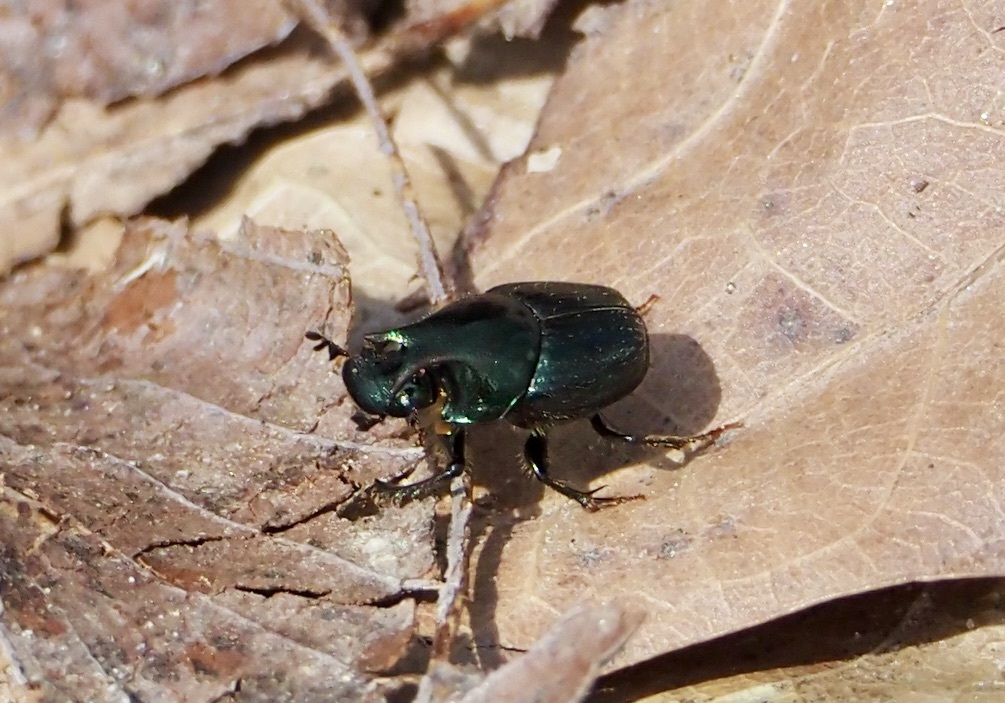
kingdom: Animalia
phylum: Arthropoda
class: Insecta
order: Coleoptera
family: Scarabaeidae
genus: Onthophagus
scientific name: Onthophagus orpheus
